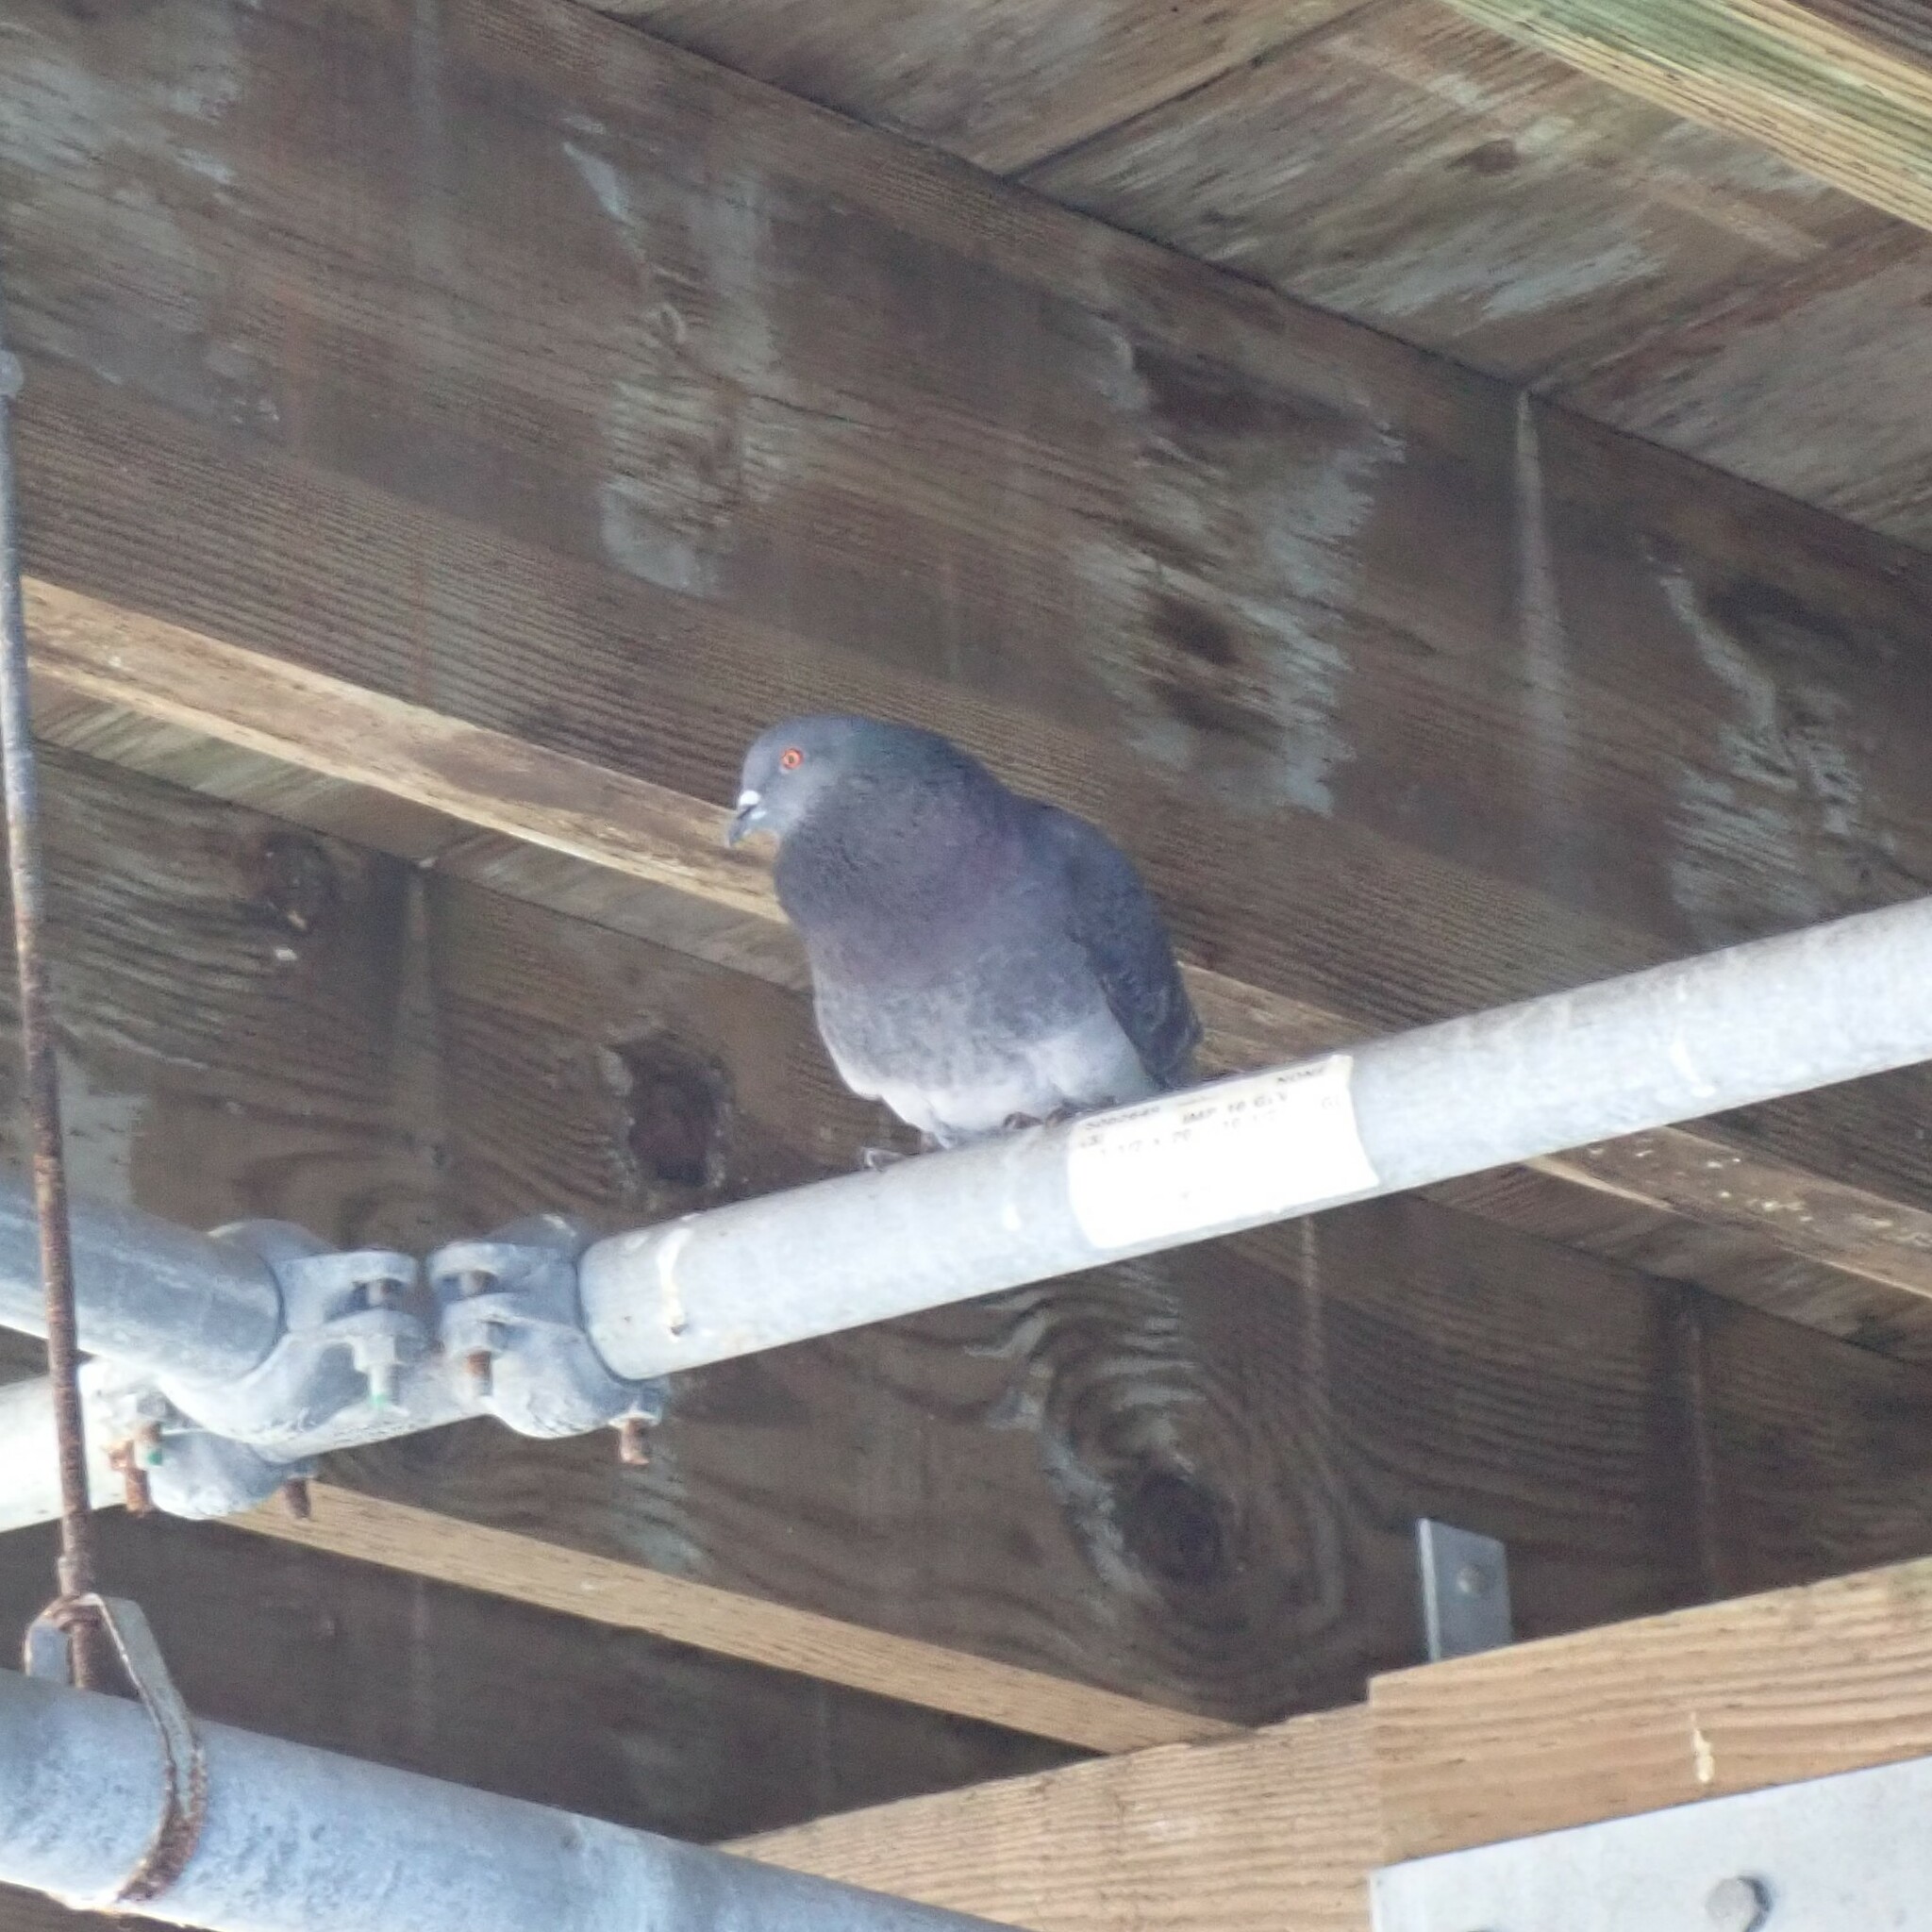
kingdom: Animalia
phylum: Chordata
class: Aves
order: Columbiformes
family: Columbidae
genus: Columba
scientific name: Columba livia
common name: Rock pigeon
